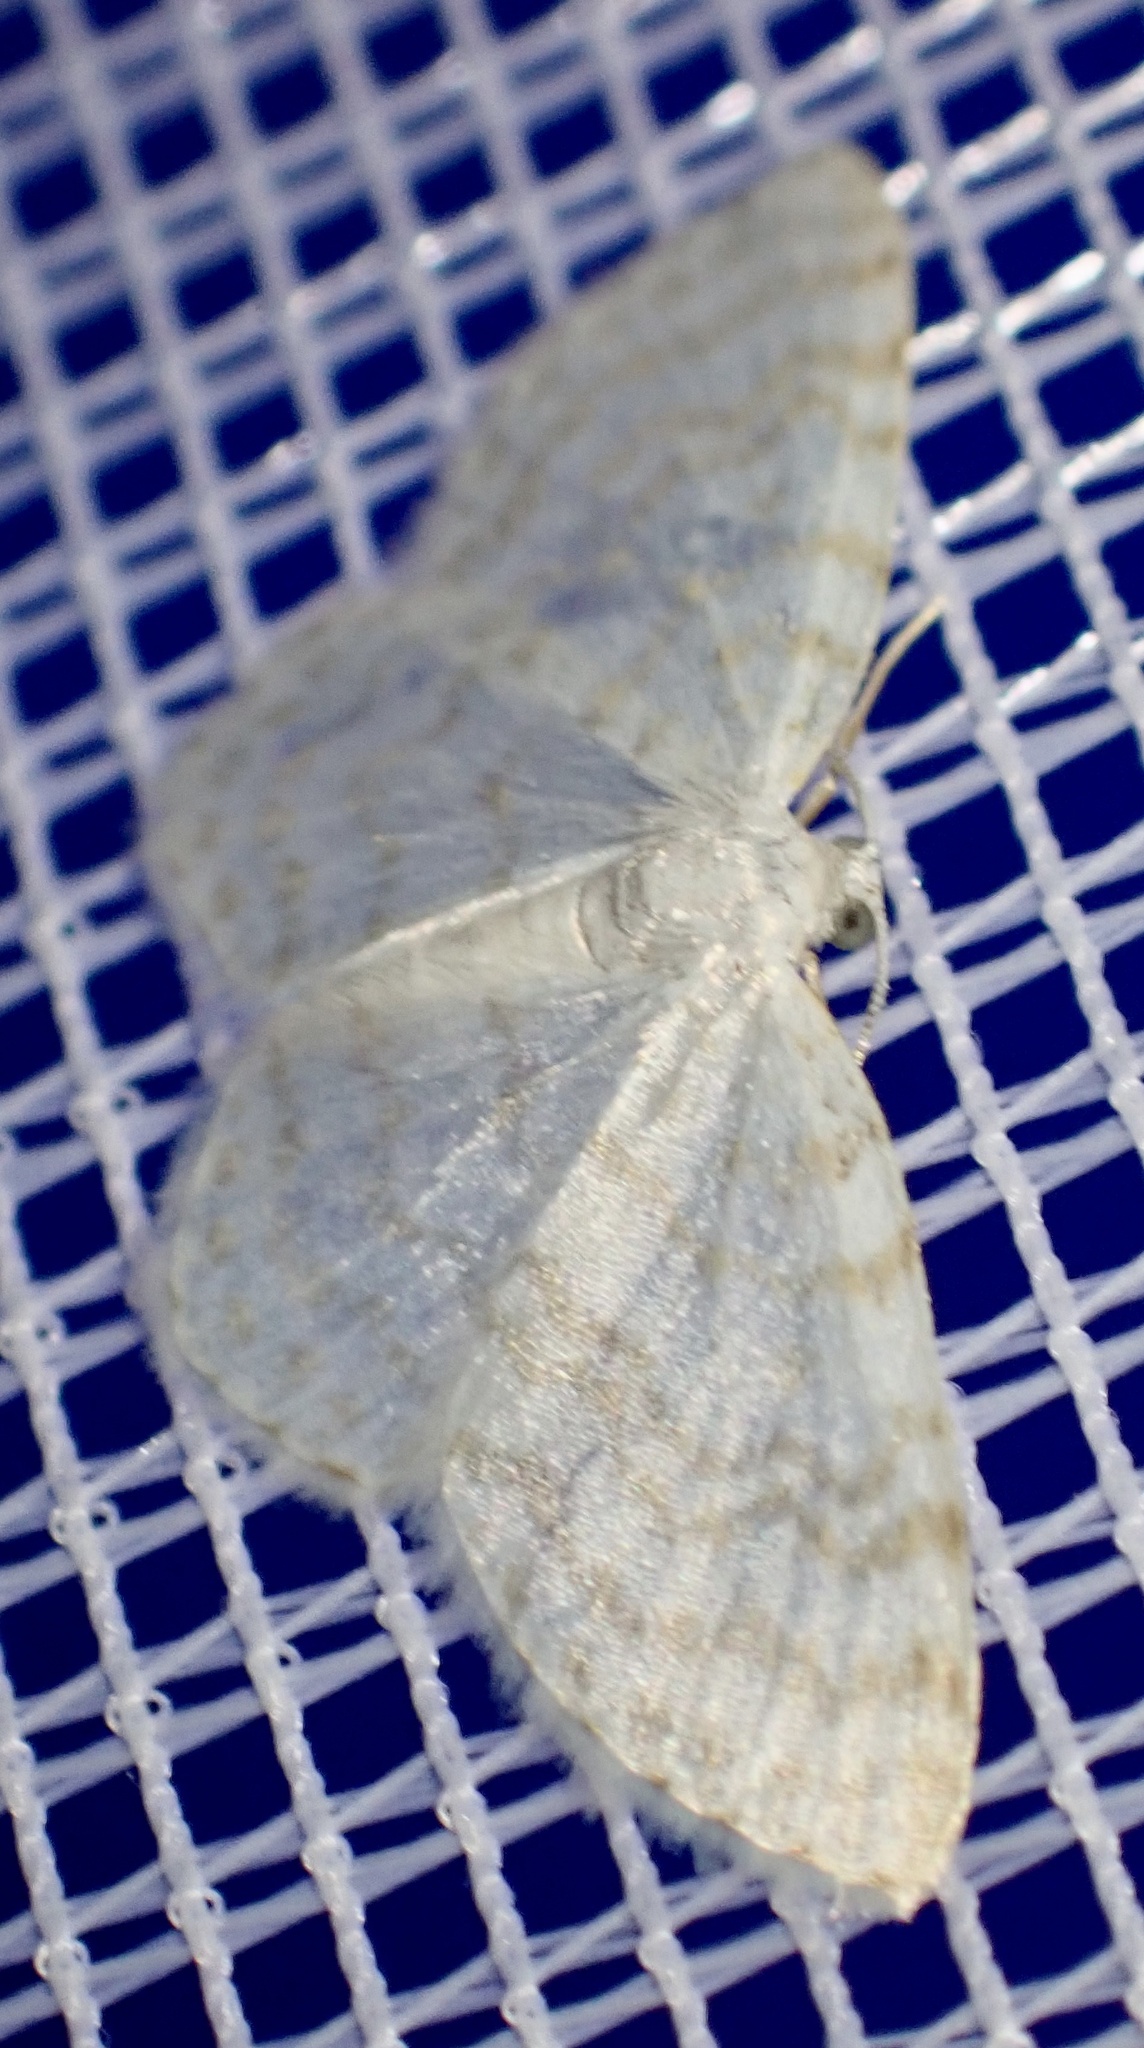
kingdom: Animalia
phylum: Arthropoda
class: Insecta
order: Lepidoptera
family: Geometridae
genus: Asthena
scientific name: Asthena albulata
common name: Small white wave
